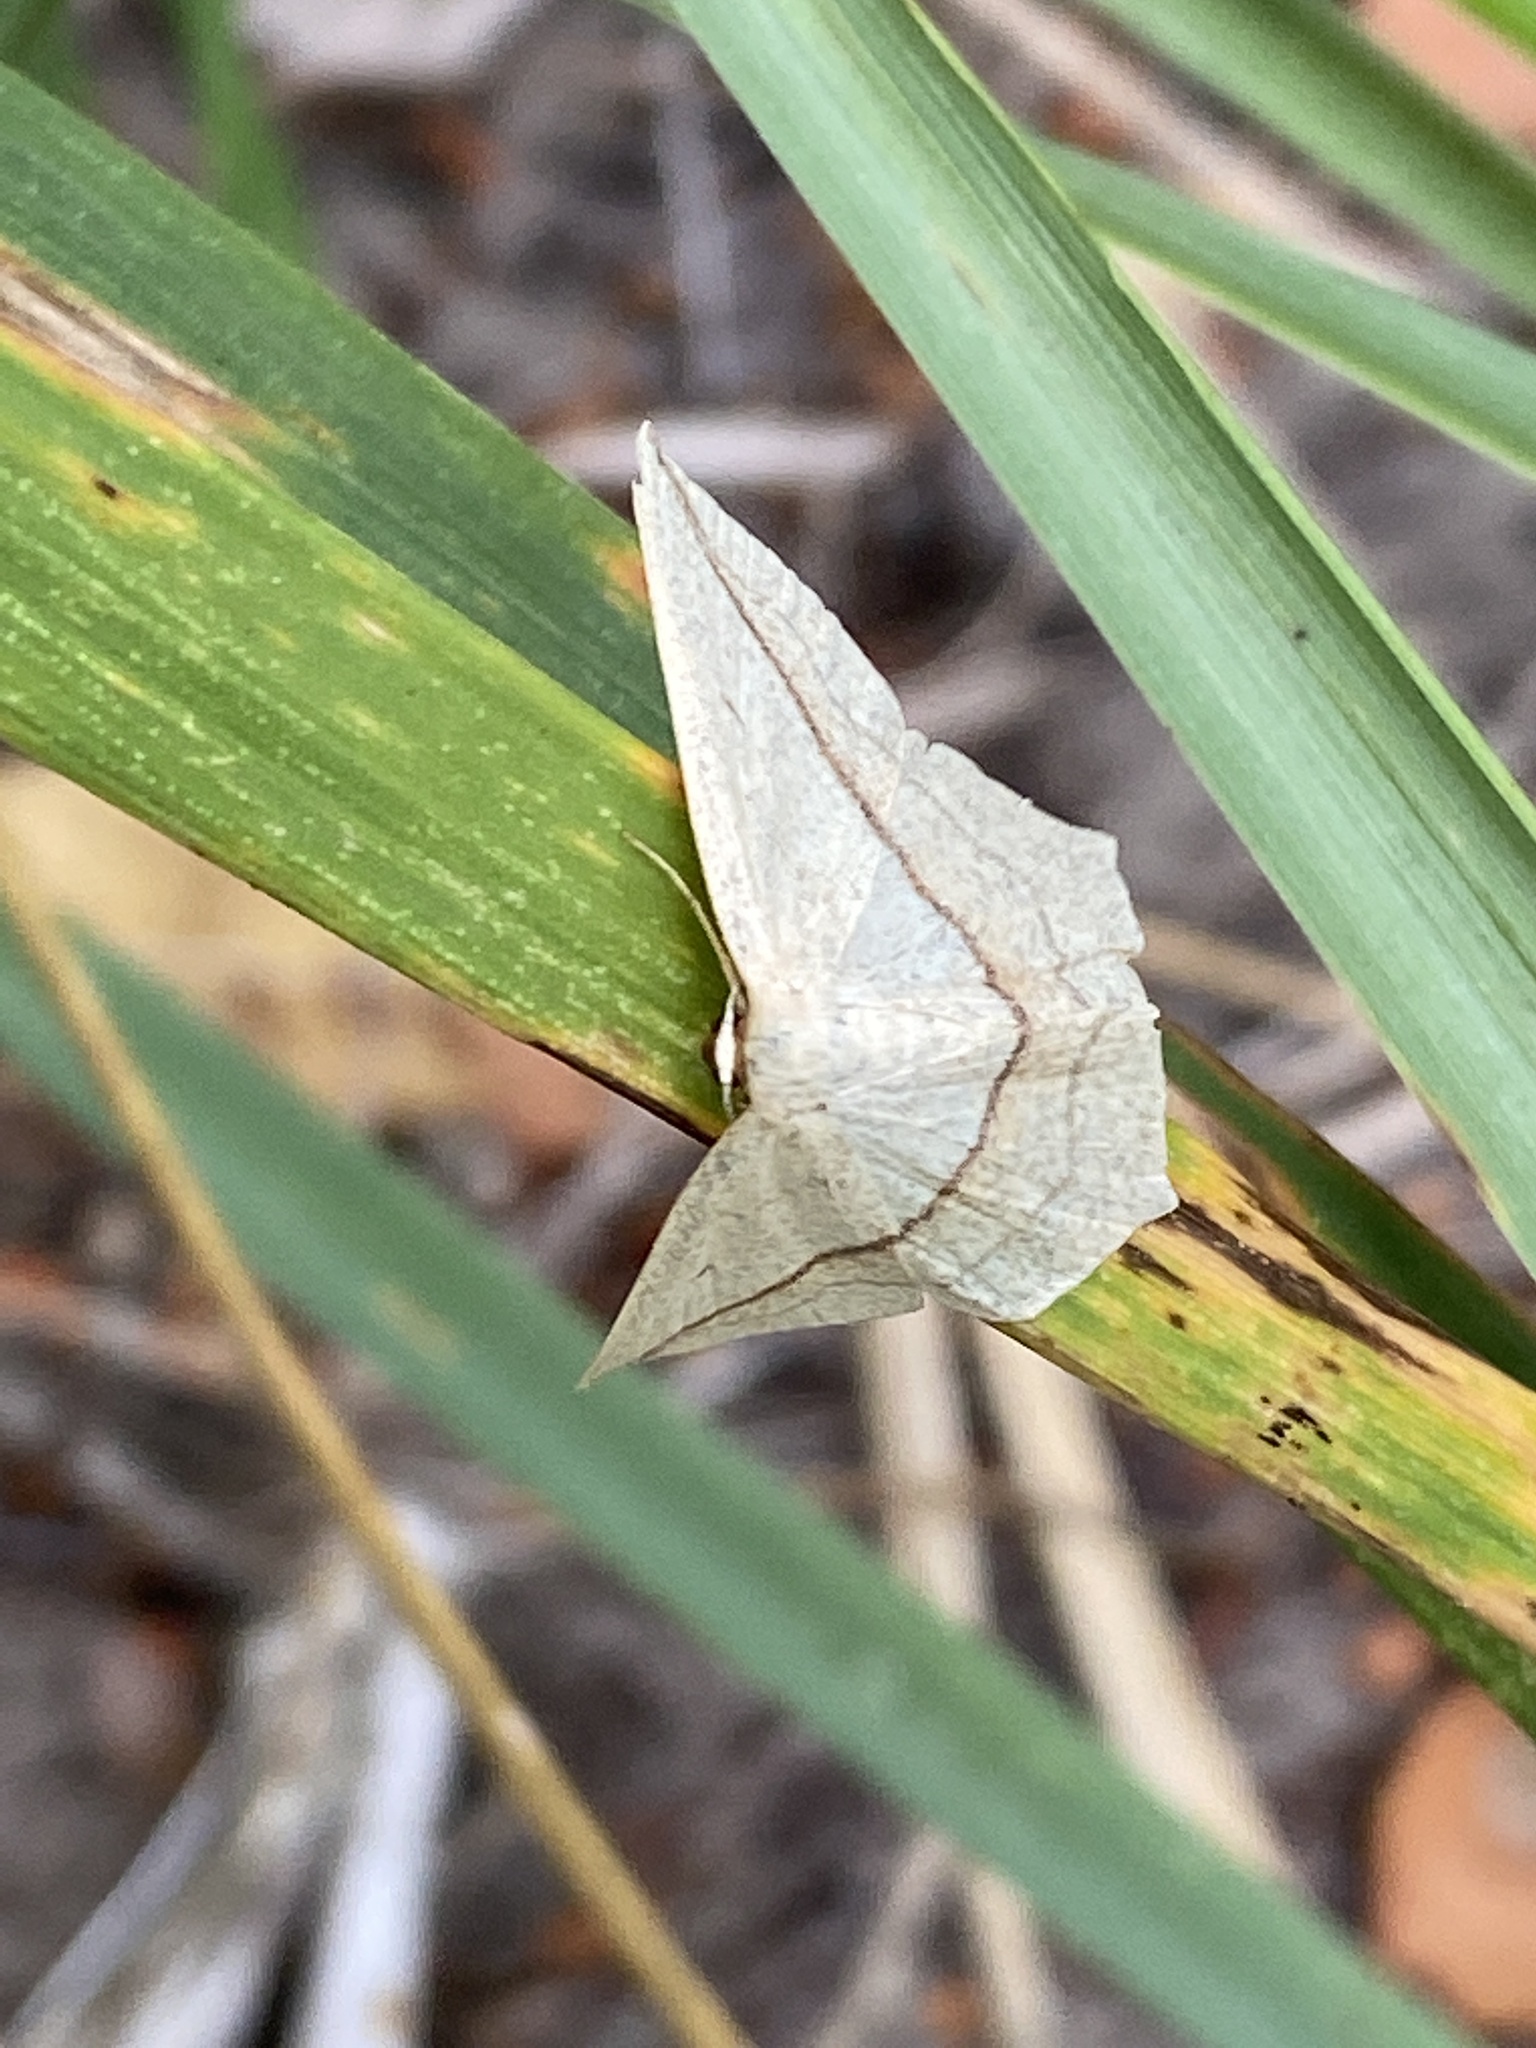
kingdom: Animalia
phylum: Arthropoda
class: Insecta
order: Lepidoptera
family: Geometridae
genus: Timandra
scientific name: Timandra comae
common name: Blood-vein
